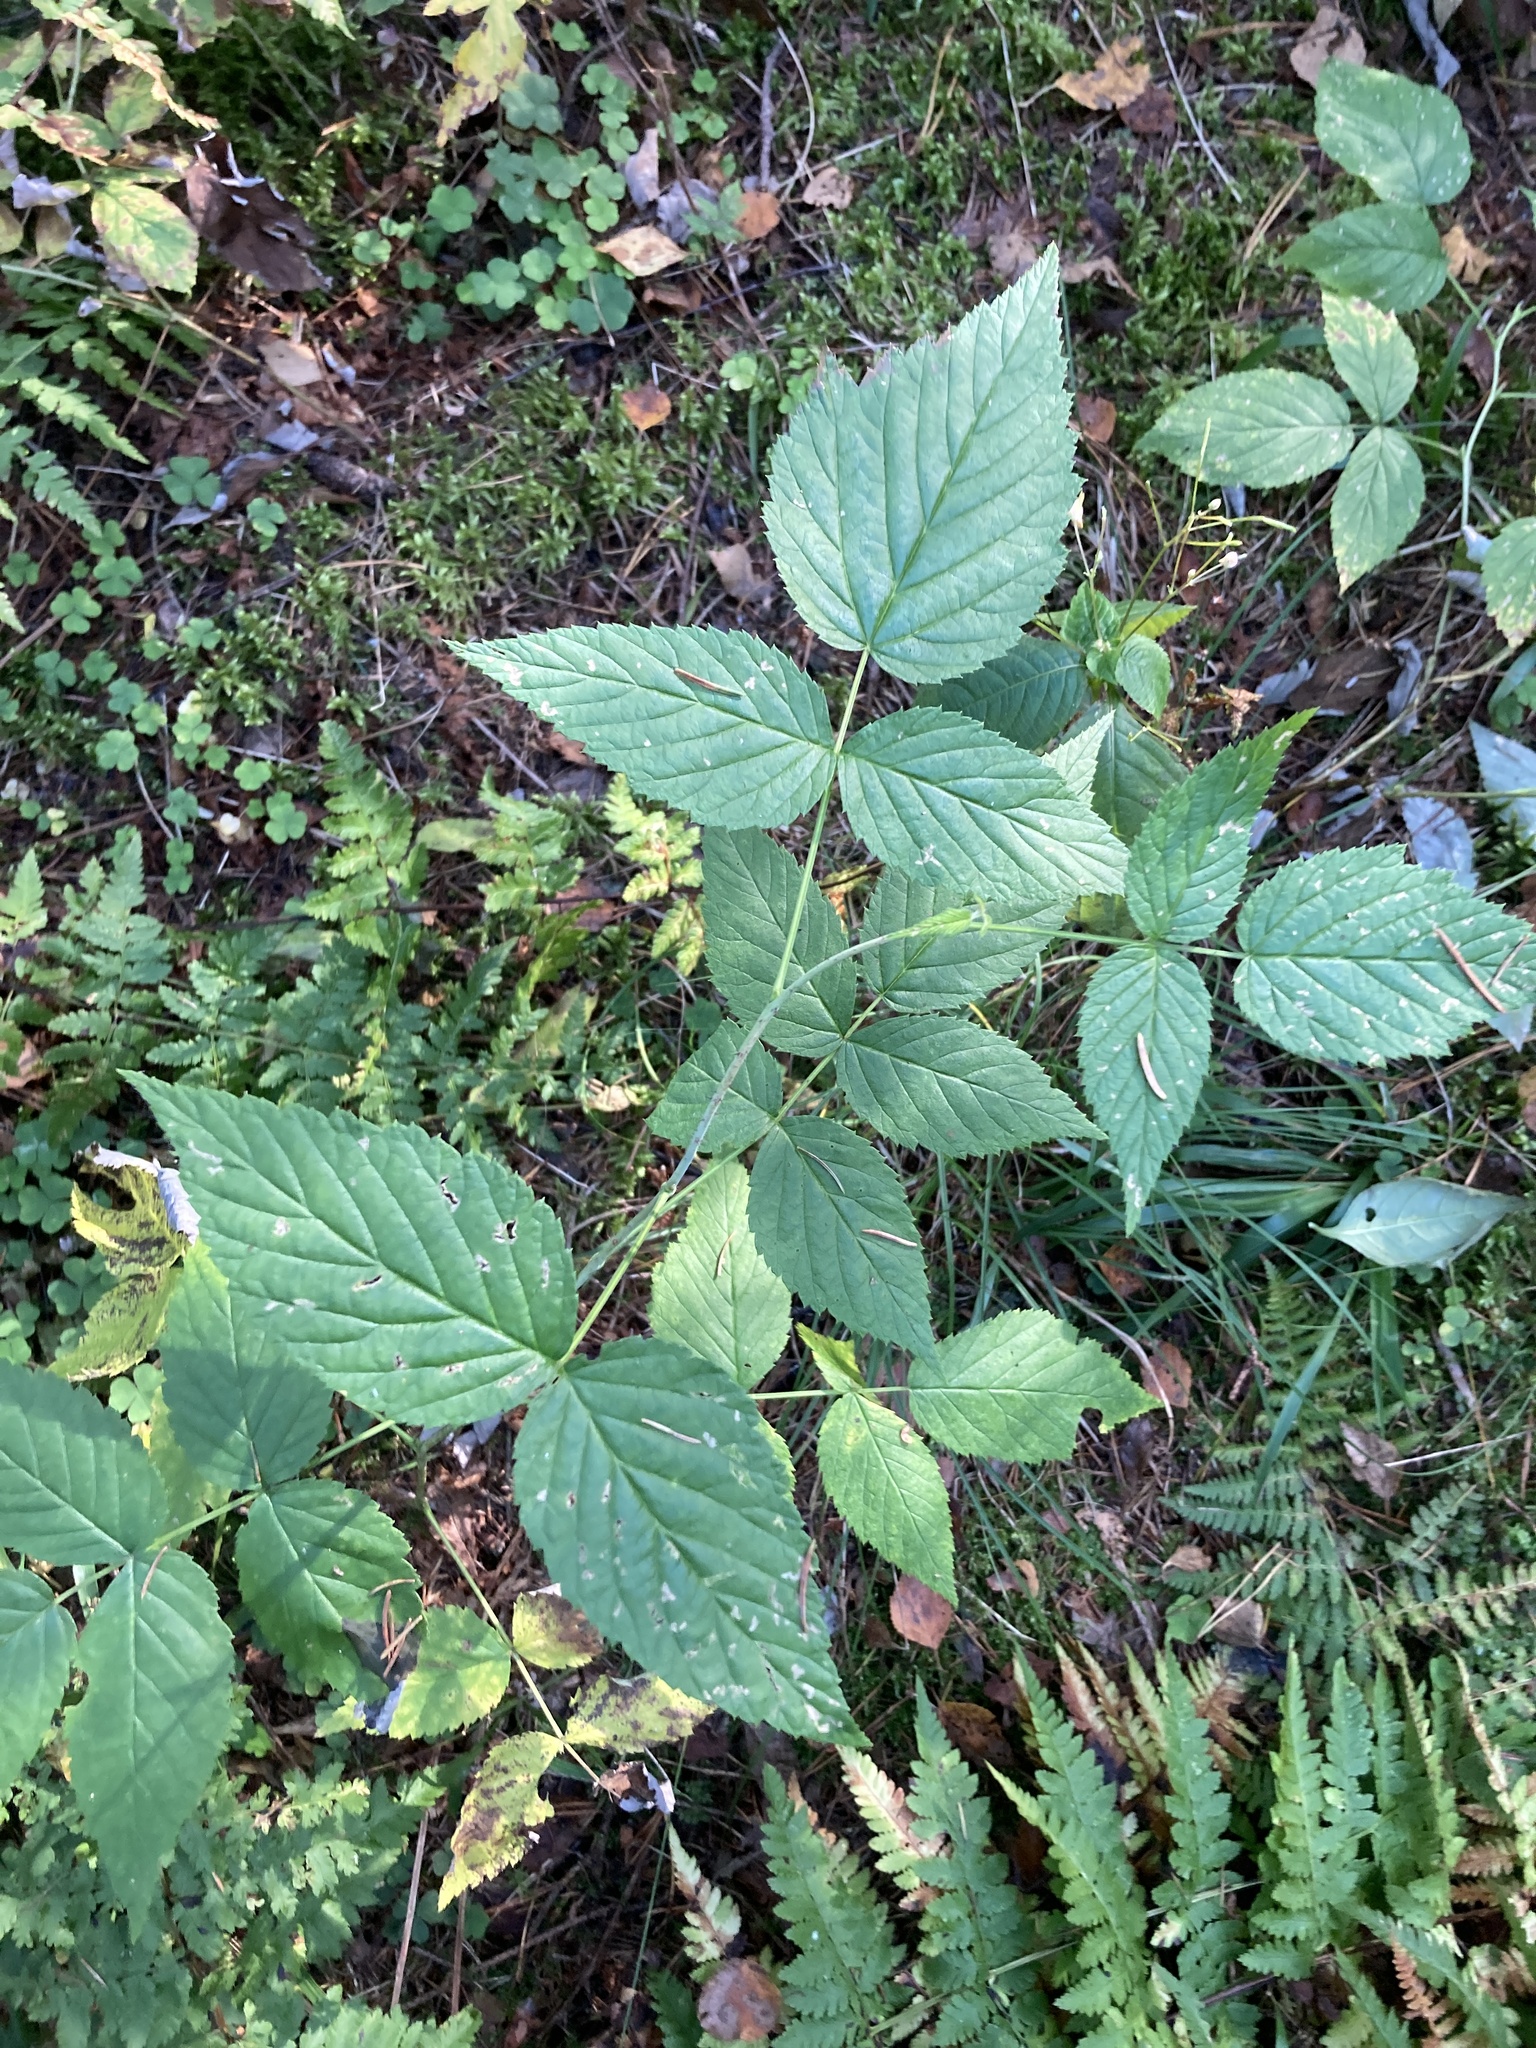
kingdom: Plantae
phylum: Tracheophyta
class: Magnoliopsida
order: Rosales
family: Rosaceae
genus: Rubus
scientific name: Rubus idaeus
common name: Raspberry
